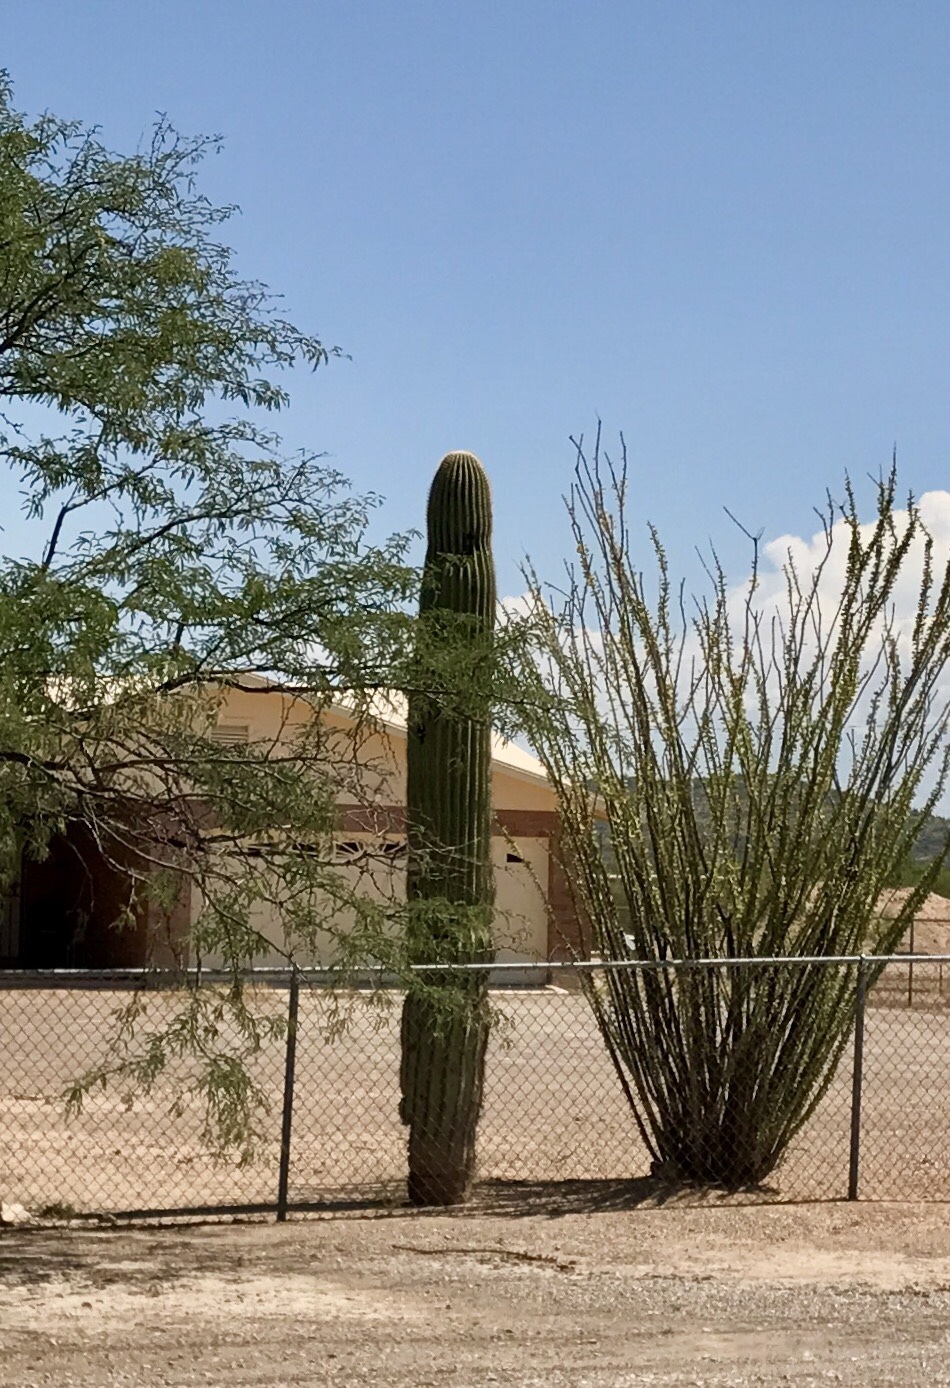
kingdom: Plantae
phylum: Tracheophyta
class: Magnoliopsida
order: Caryophyllales
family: Cactaceae
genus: Carnegiea
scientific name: Carnegiea gigantea
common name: Saguaro
